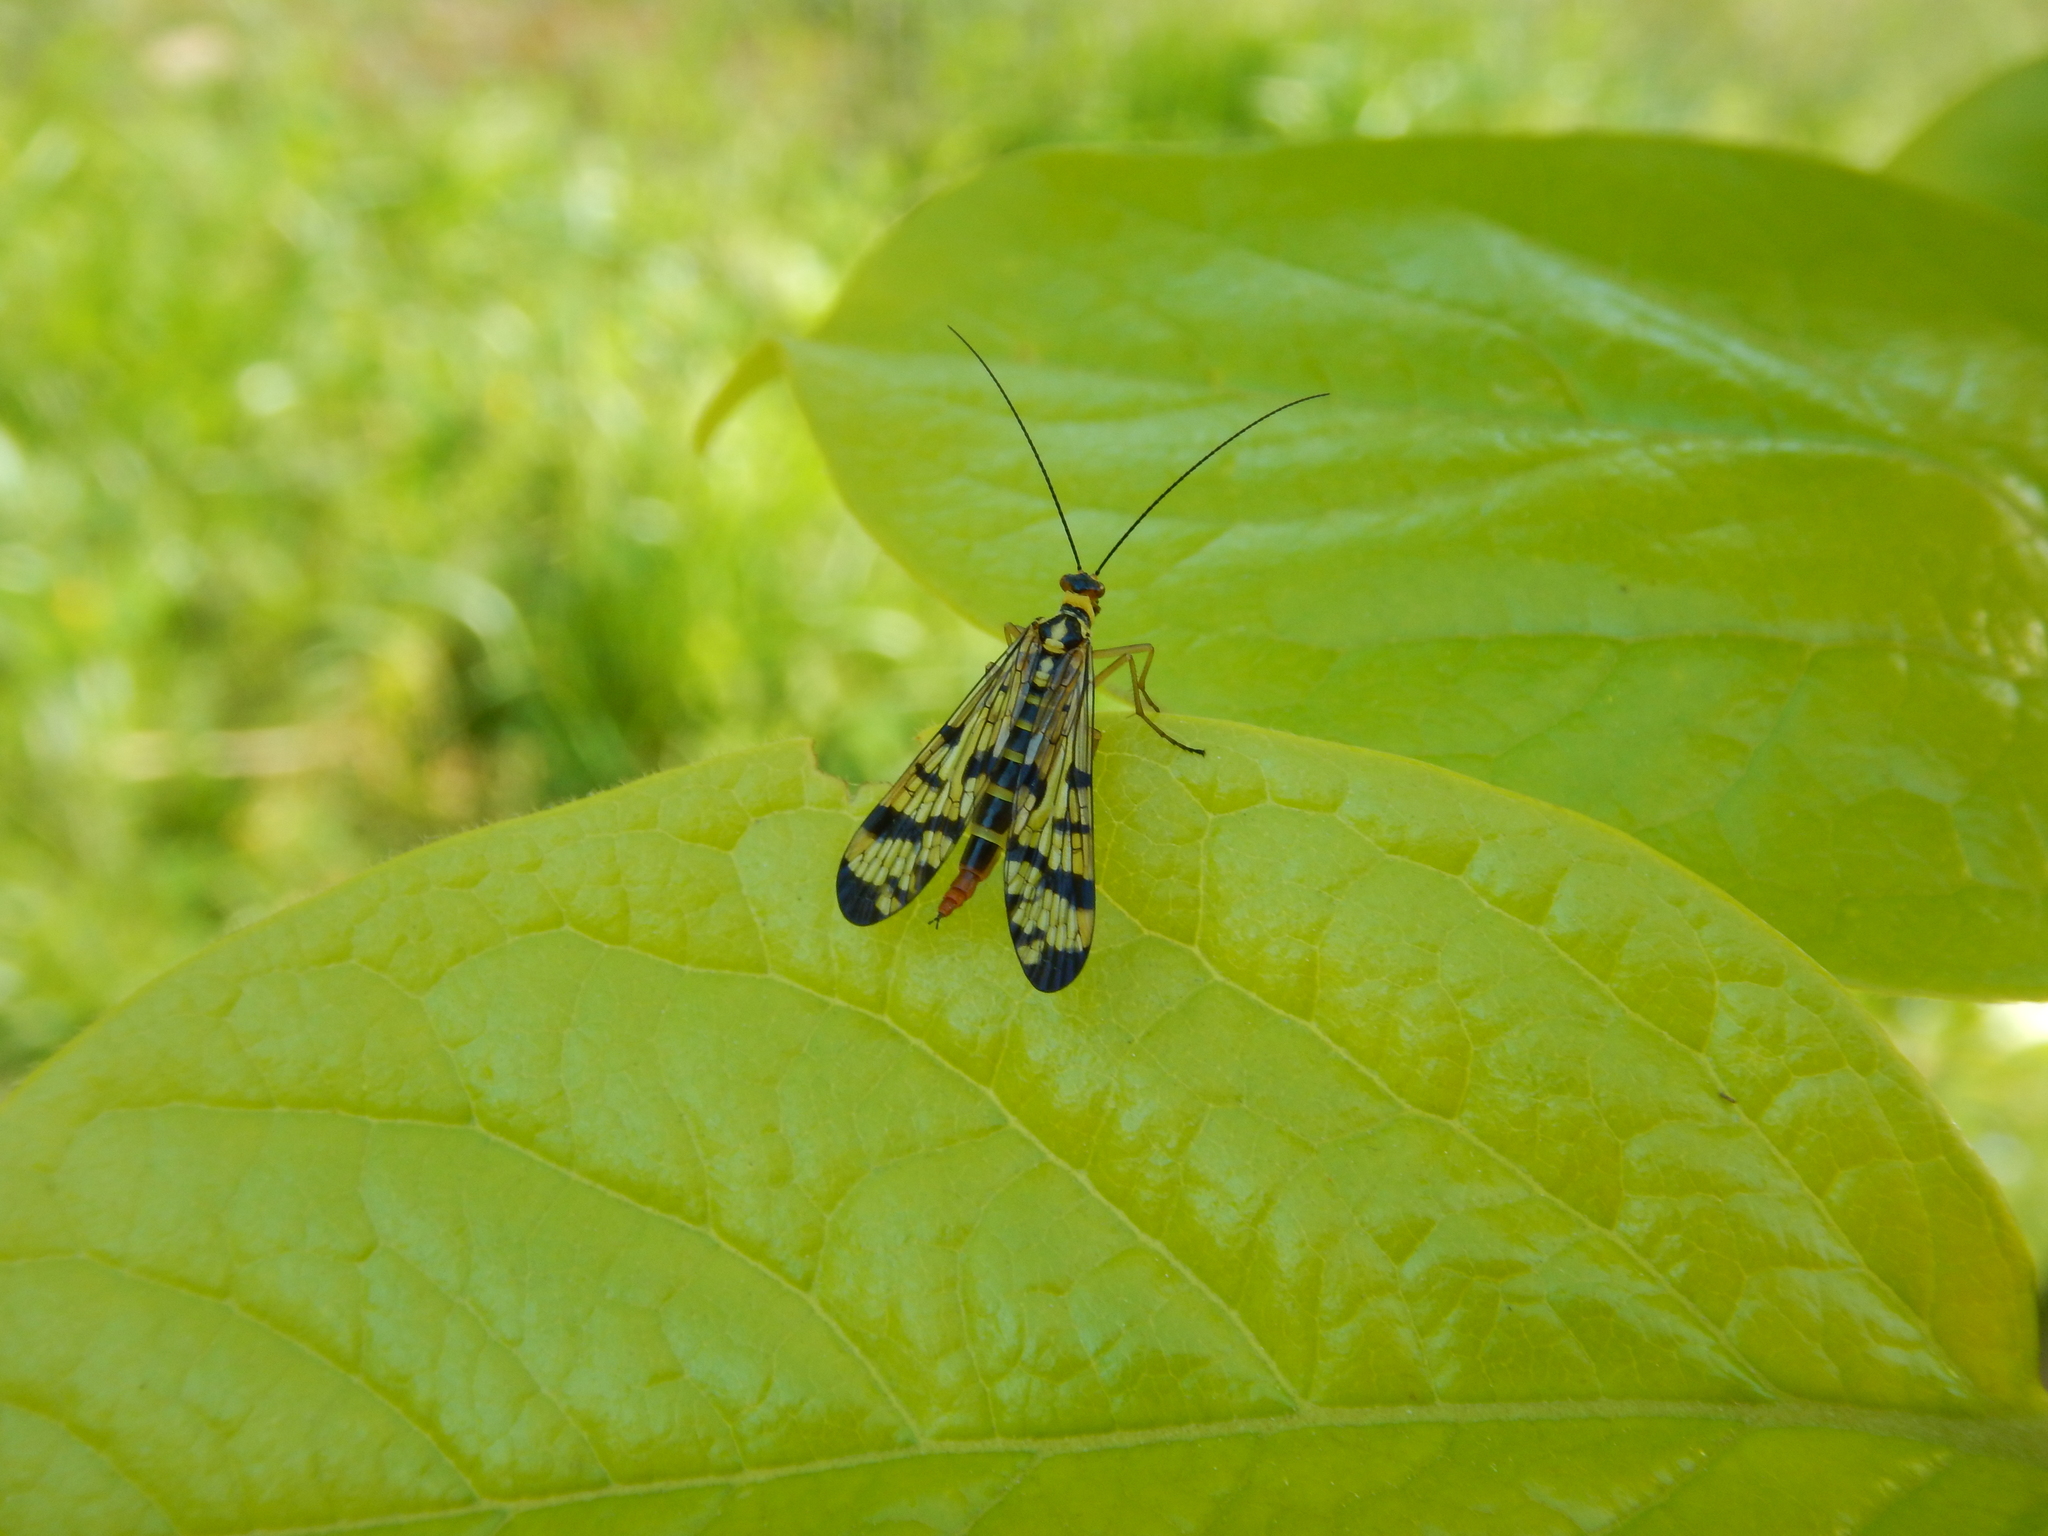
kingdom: Animalia
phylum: Arthropoda
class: Insecta
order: Mecoptera
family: Panorpidae
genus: Panorpa
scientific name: Panorpa communis
